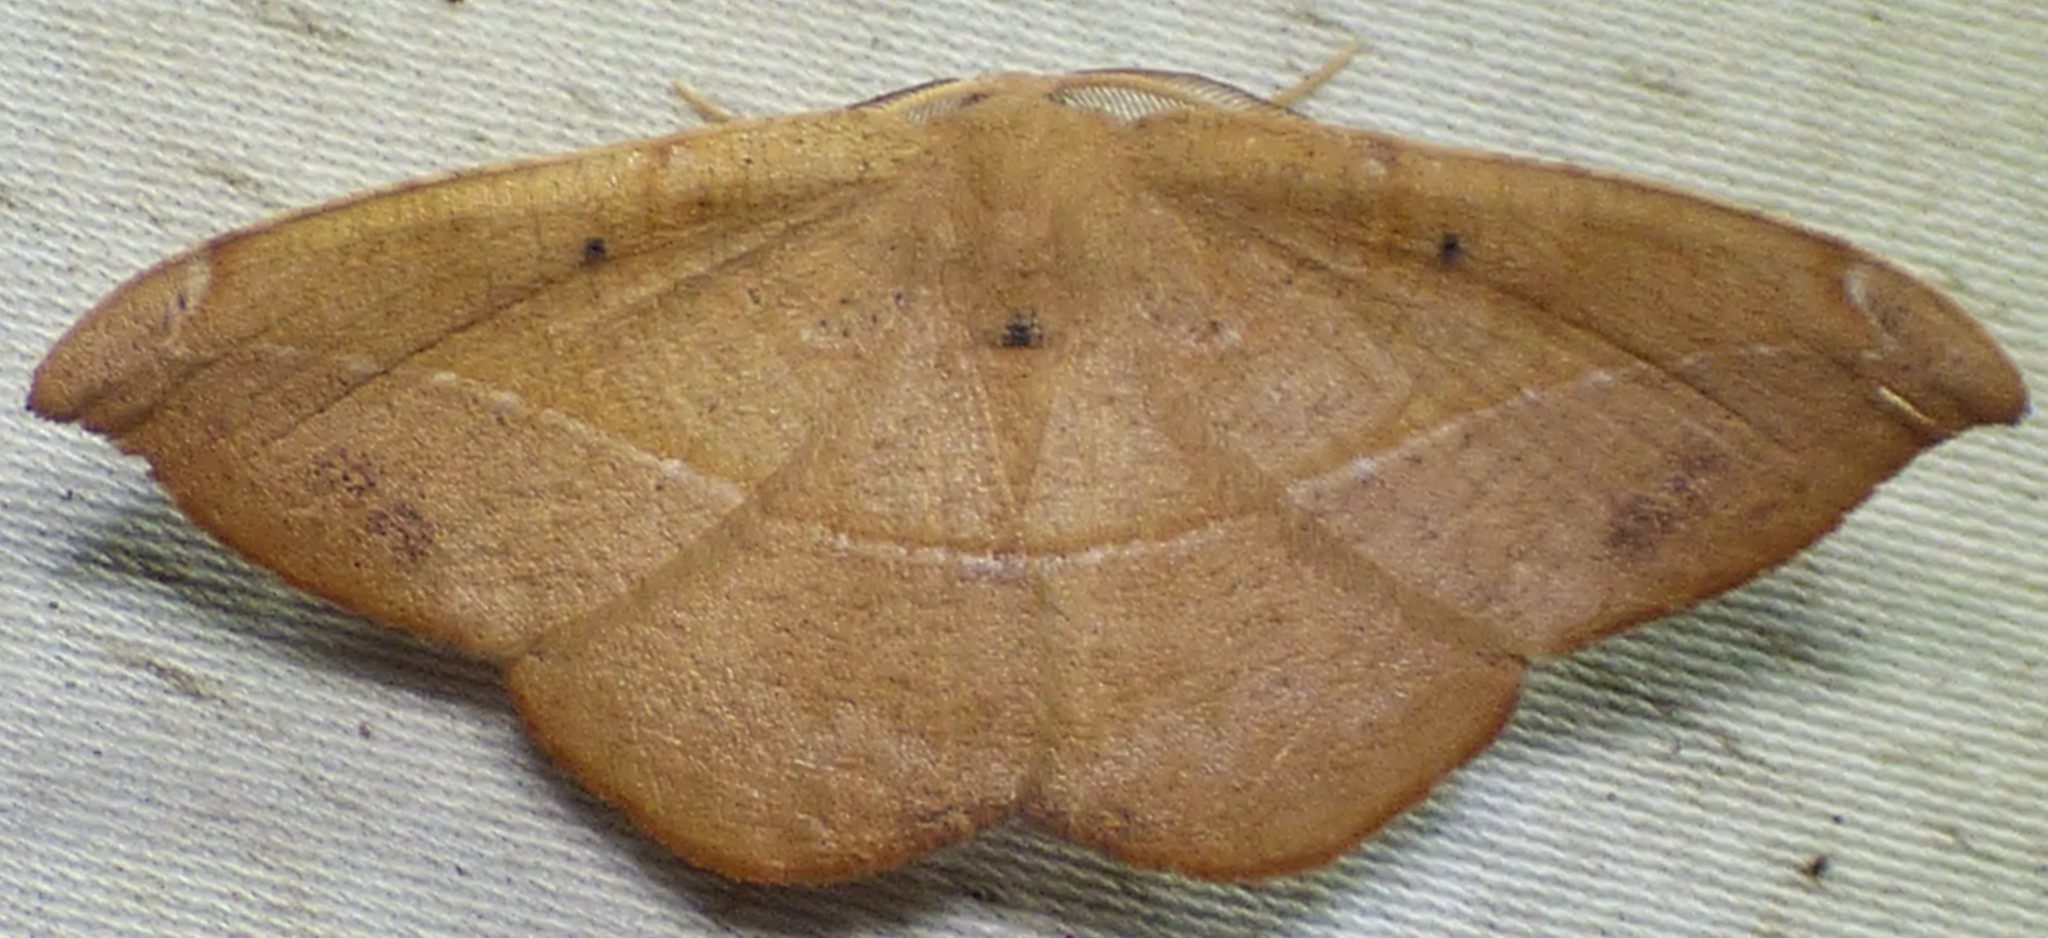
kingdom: Animalia
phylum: Arthropoda
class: Insecta
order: Lepidoptera
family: Geometridae
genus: Patalene
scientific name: Patalene olyzonaria
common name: Juniper geometer moth
